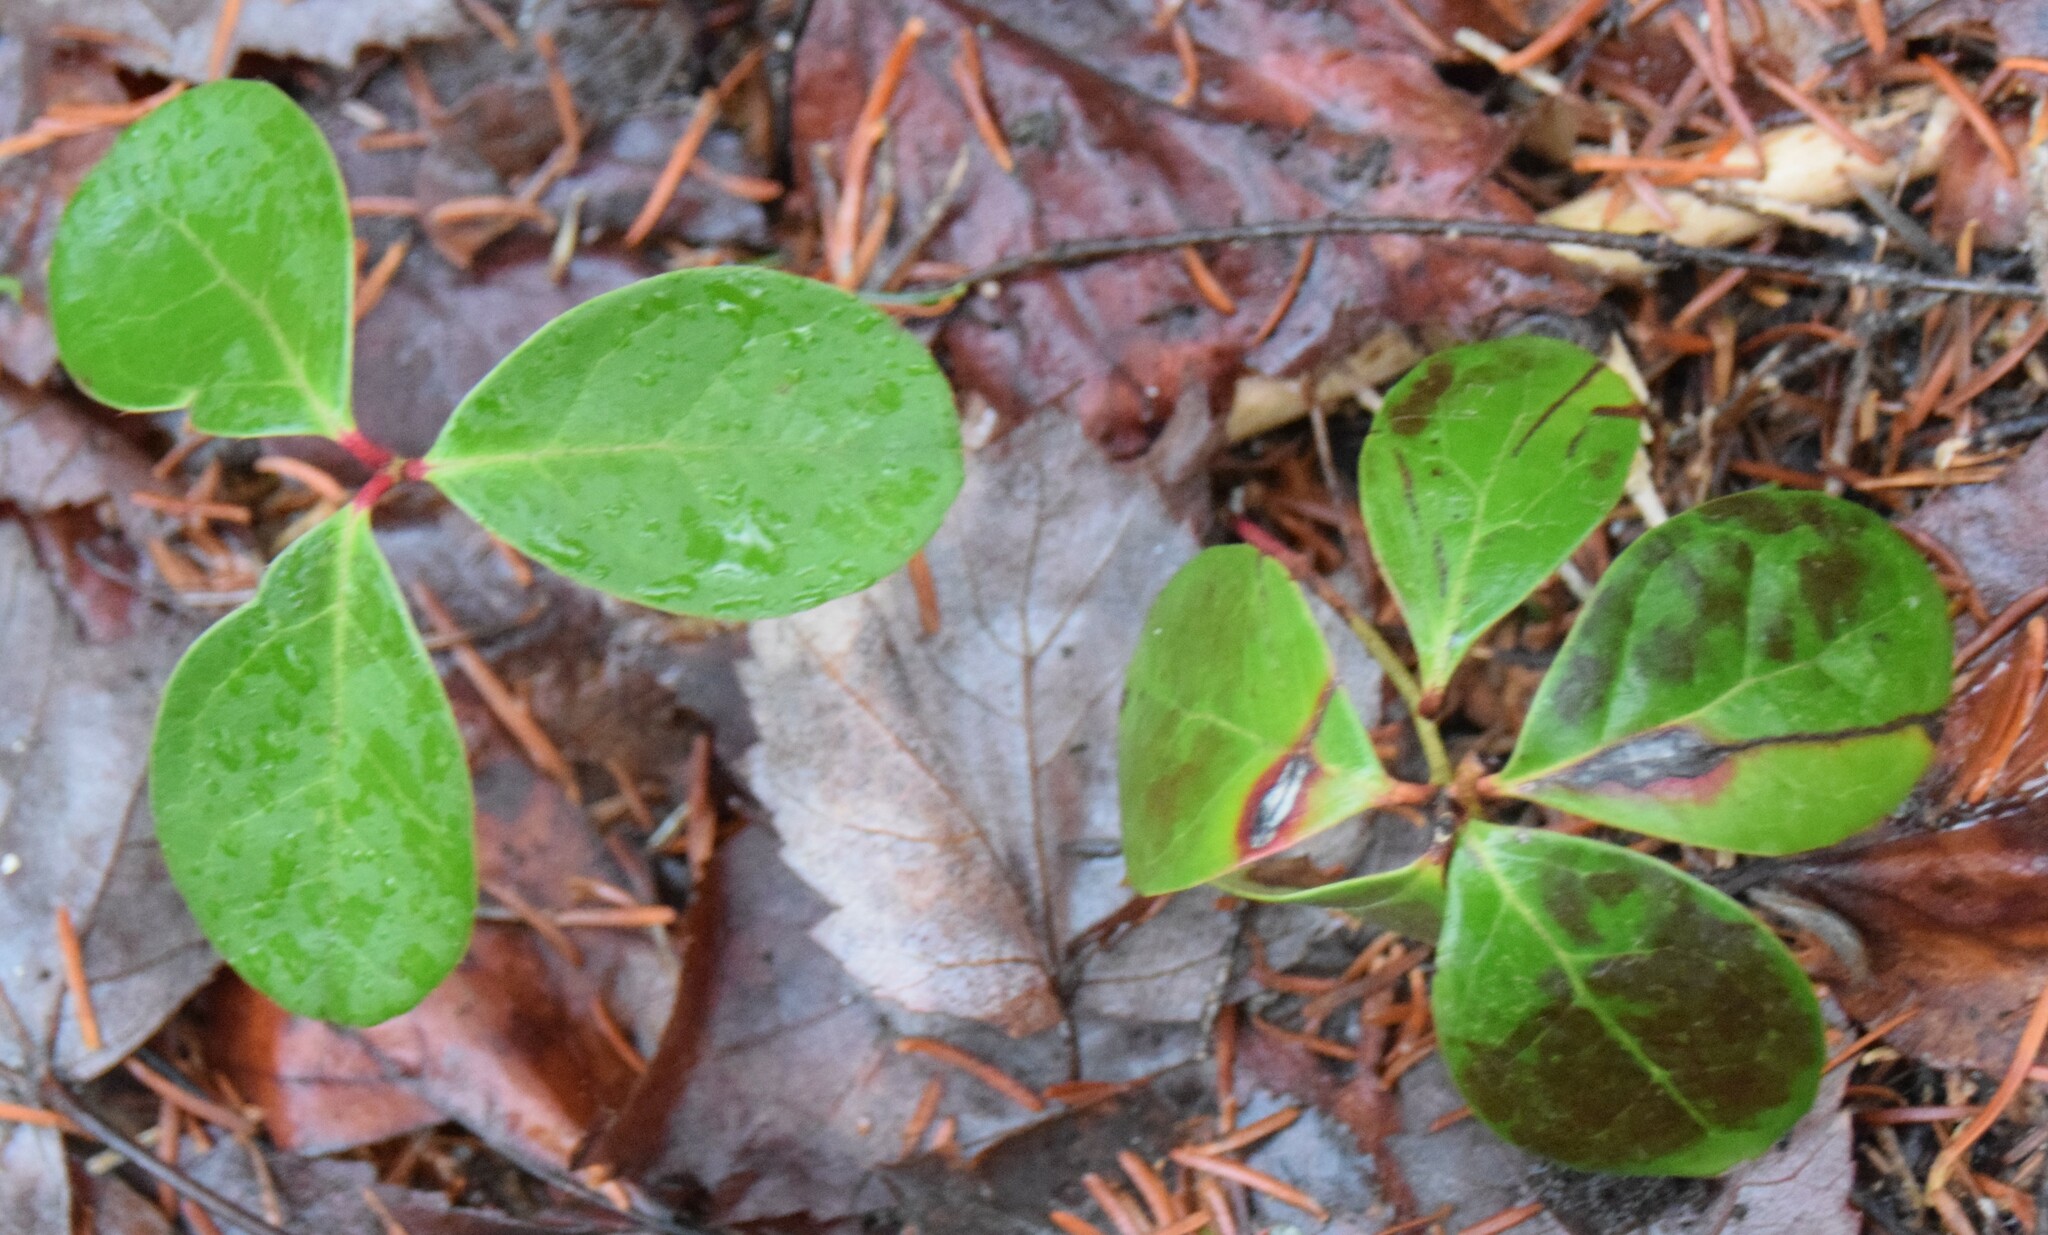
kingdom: Plantae
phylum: Tracheophyta
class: Magnoliopsida
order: Ericales
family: Ericaceae
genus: Gaultheria
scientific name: Gaultheria procumbens
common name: Checkerberry
